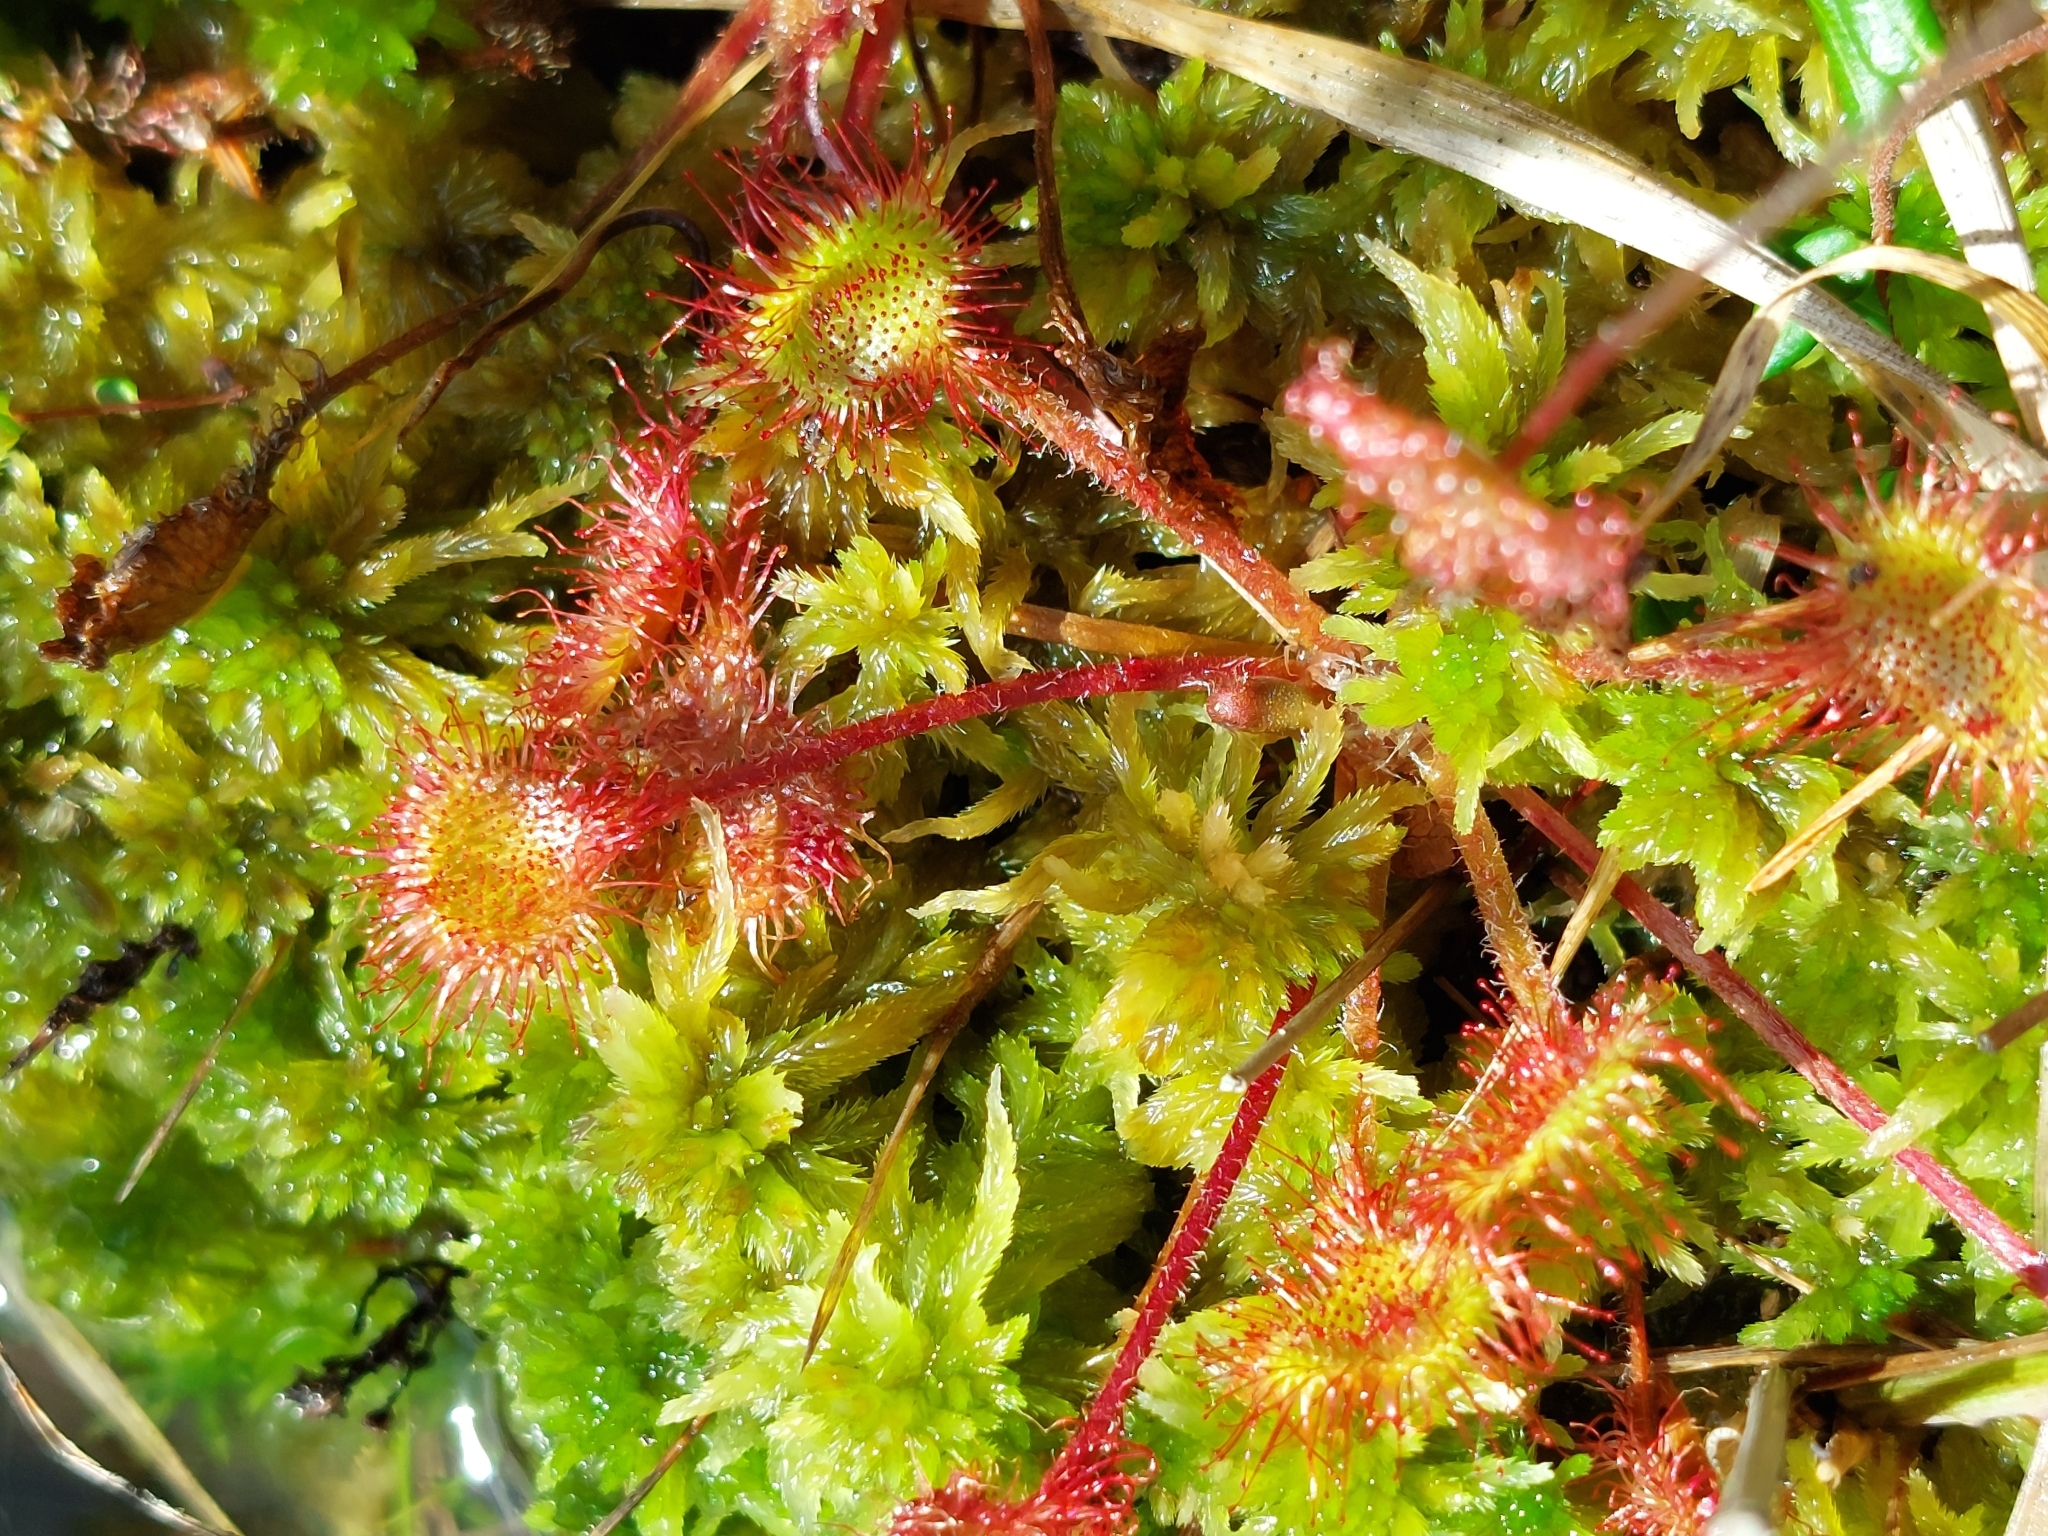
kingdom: Plantae
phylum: Tracheophyta
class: Magnoliopsida
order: Caryophyllales
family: Droseraceae
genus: Drosera
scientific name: Drosera rotundifolia
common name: Round-leaved sundew
